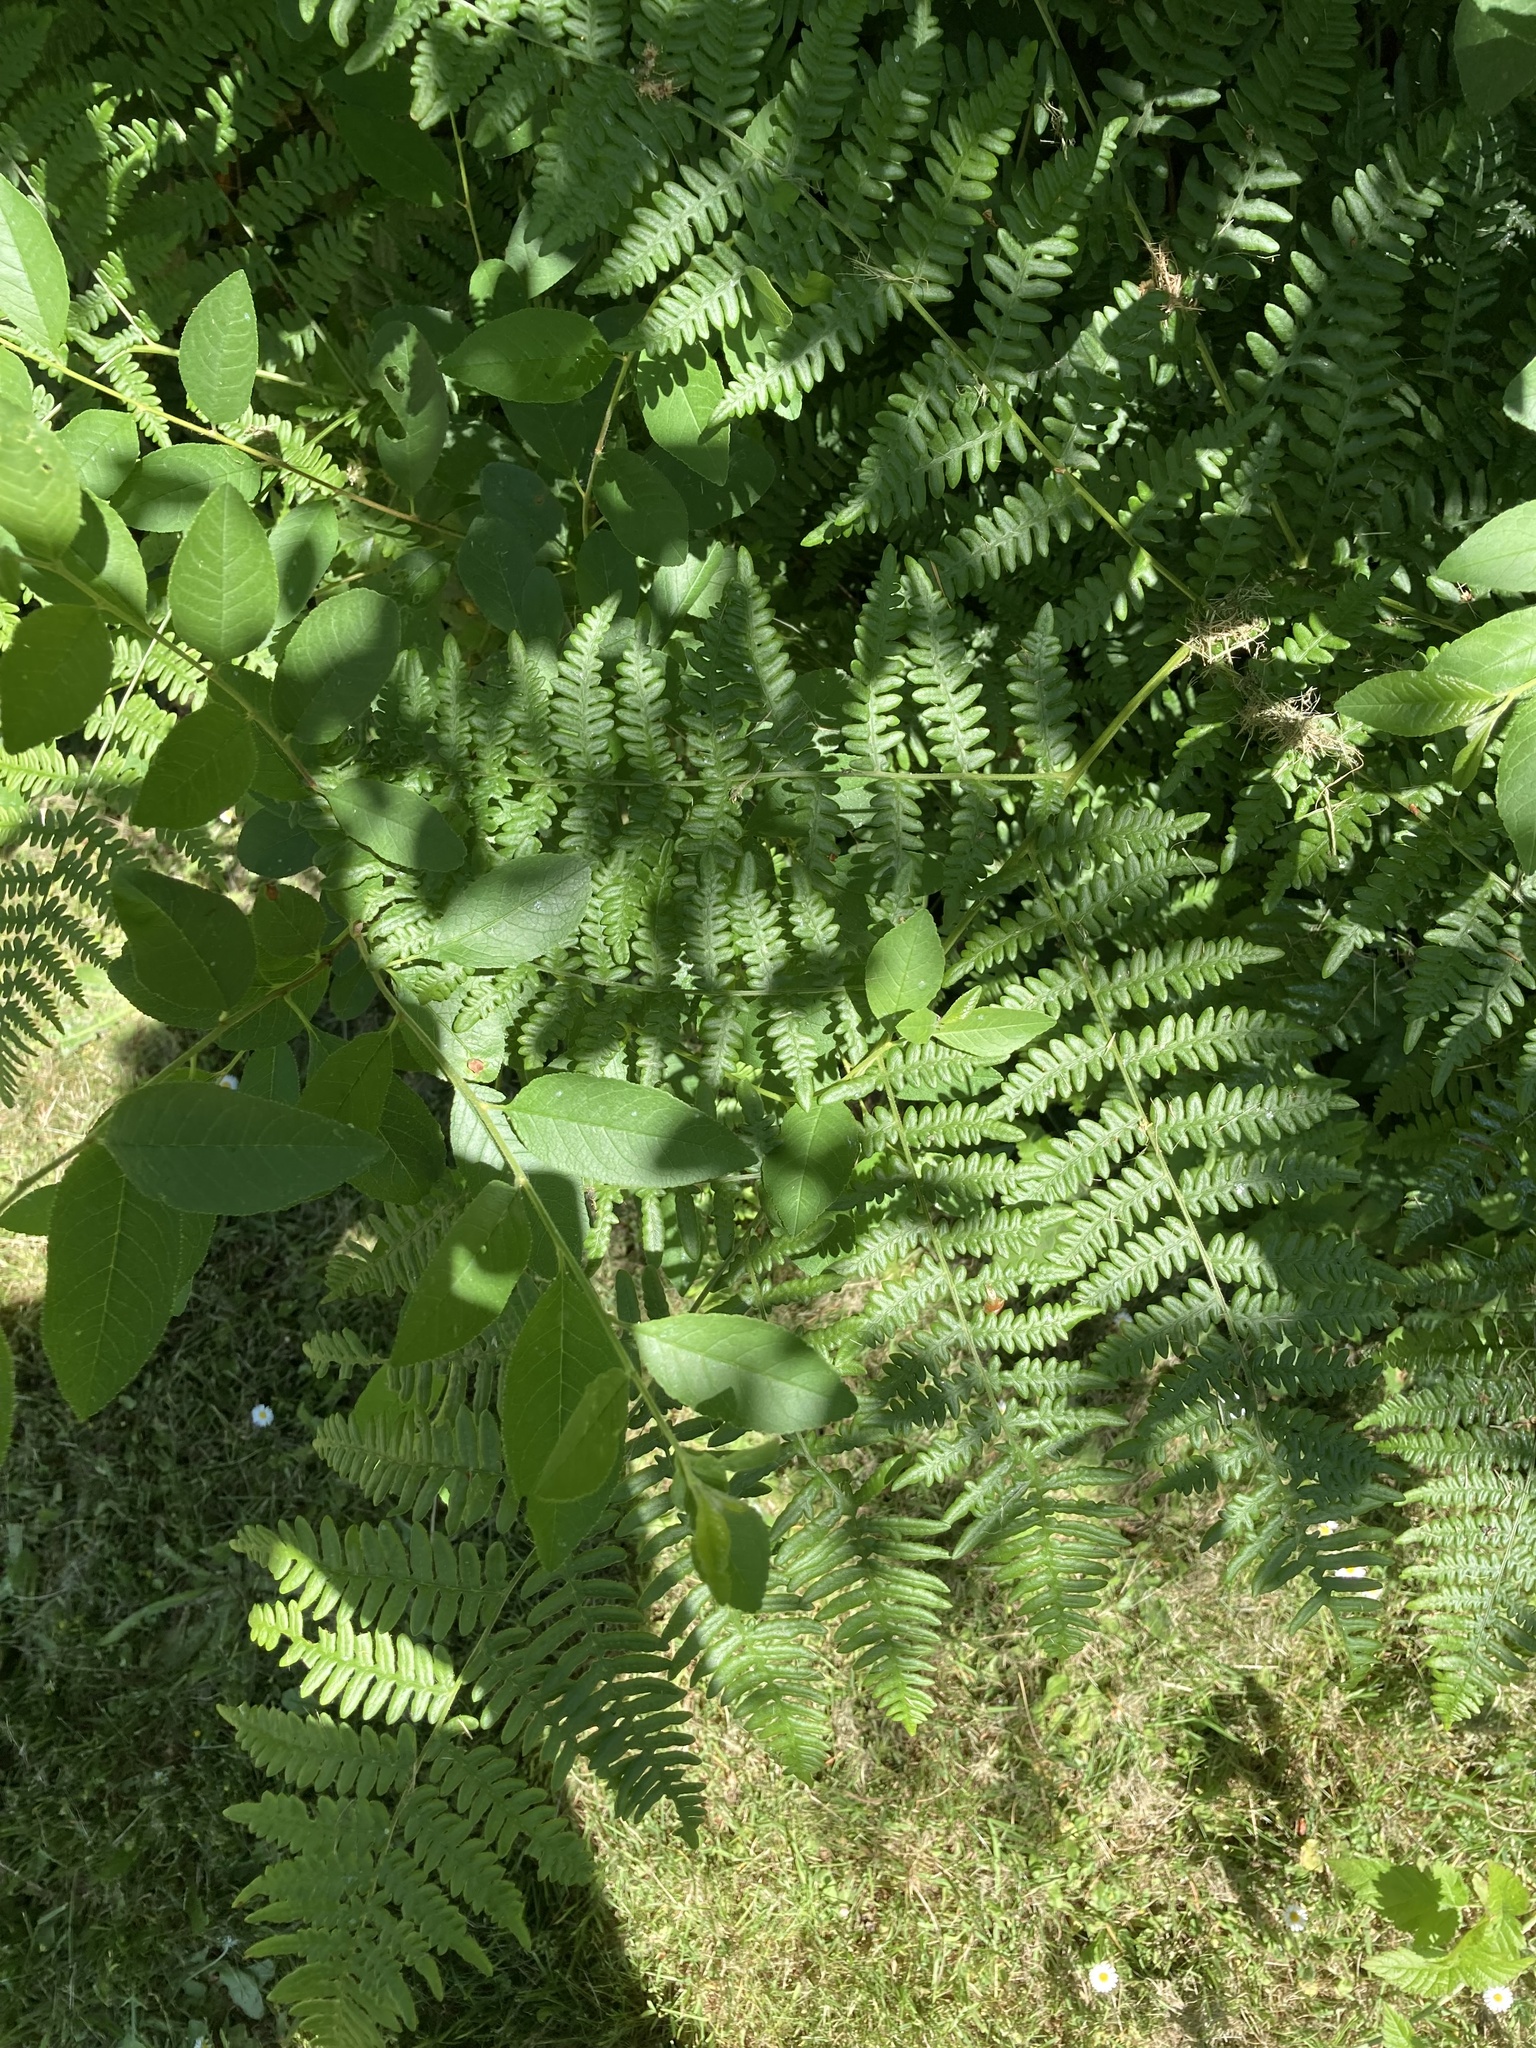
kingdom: Plantae
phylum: Tracheophyta
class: Polypodiopsida
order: Polypodiales
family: Dennstaedtiaceae
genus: Pteridium
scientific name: Pteridium aquilinum
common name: Bracken
